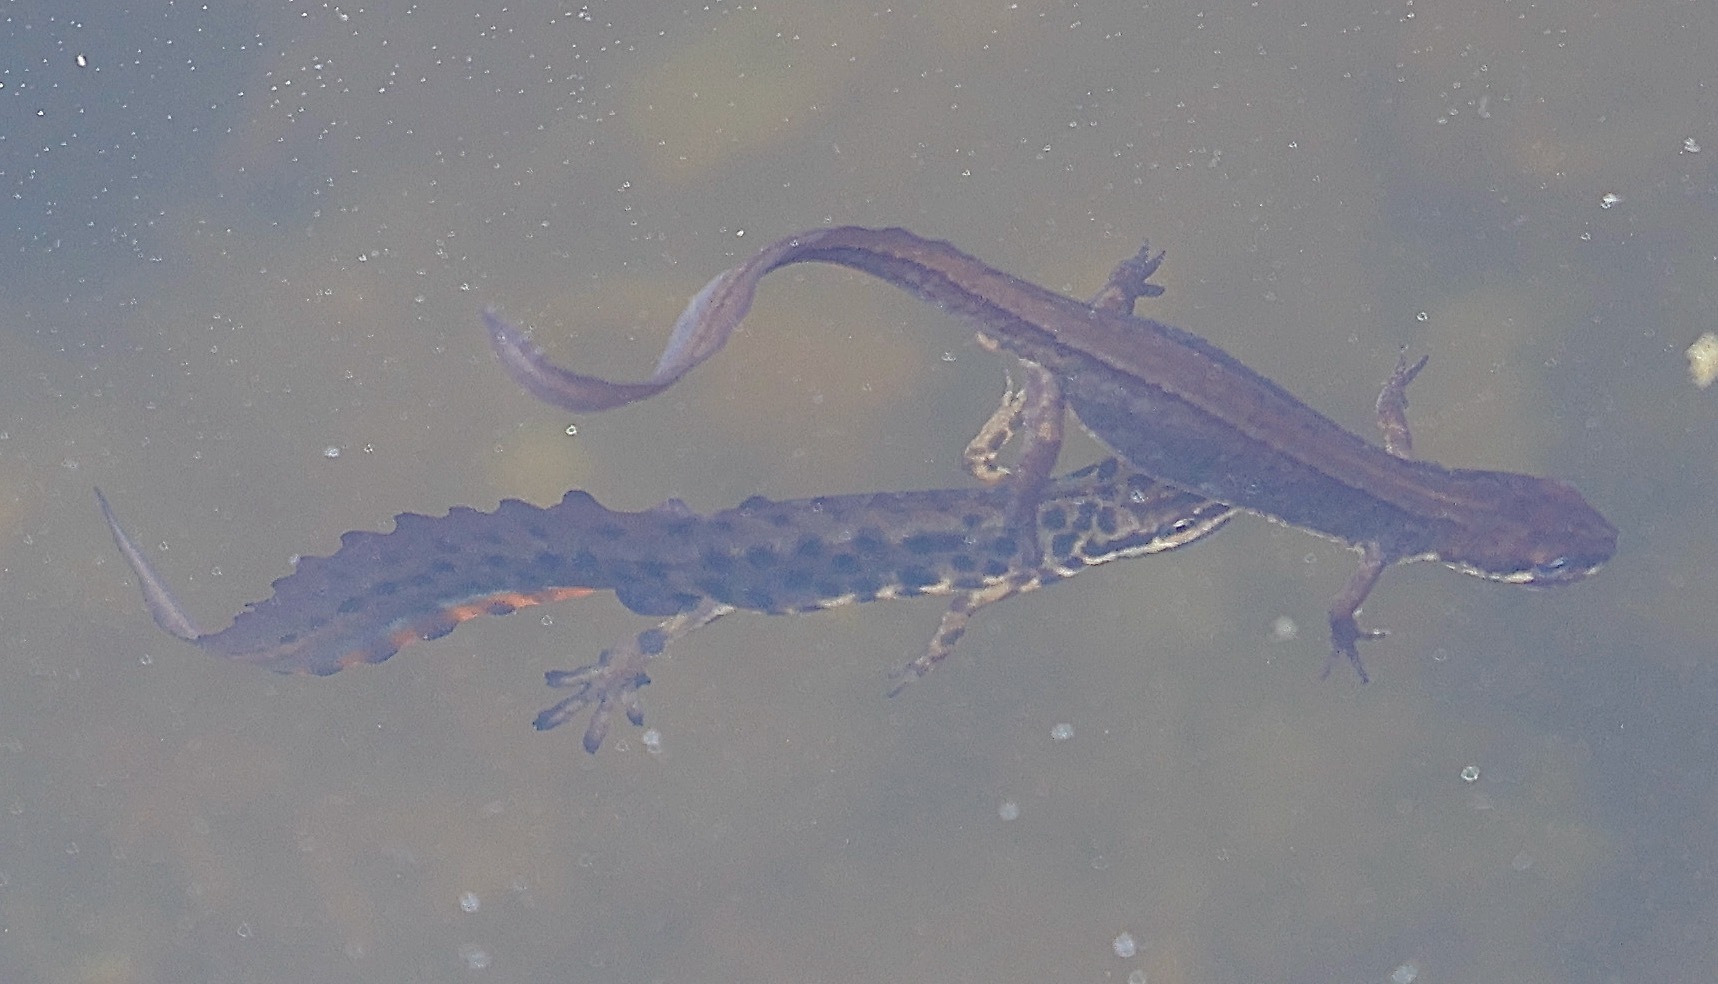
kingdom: Animalia
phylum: Chordata
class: Amphibia
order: Caudata
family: Salamandridae
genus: Lissotriton
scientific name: Lissotriton vulgaris
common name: Smooth newt
